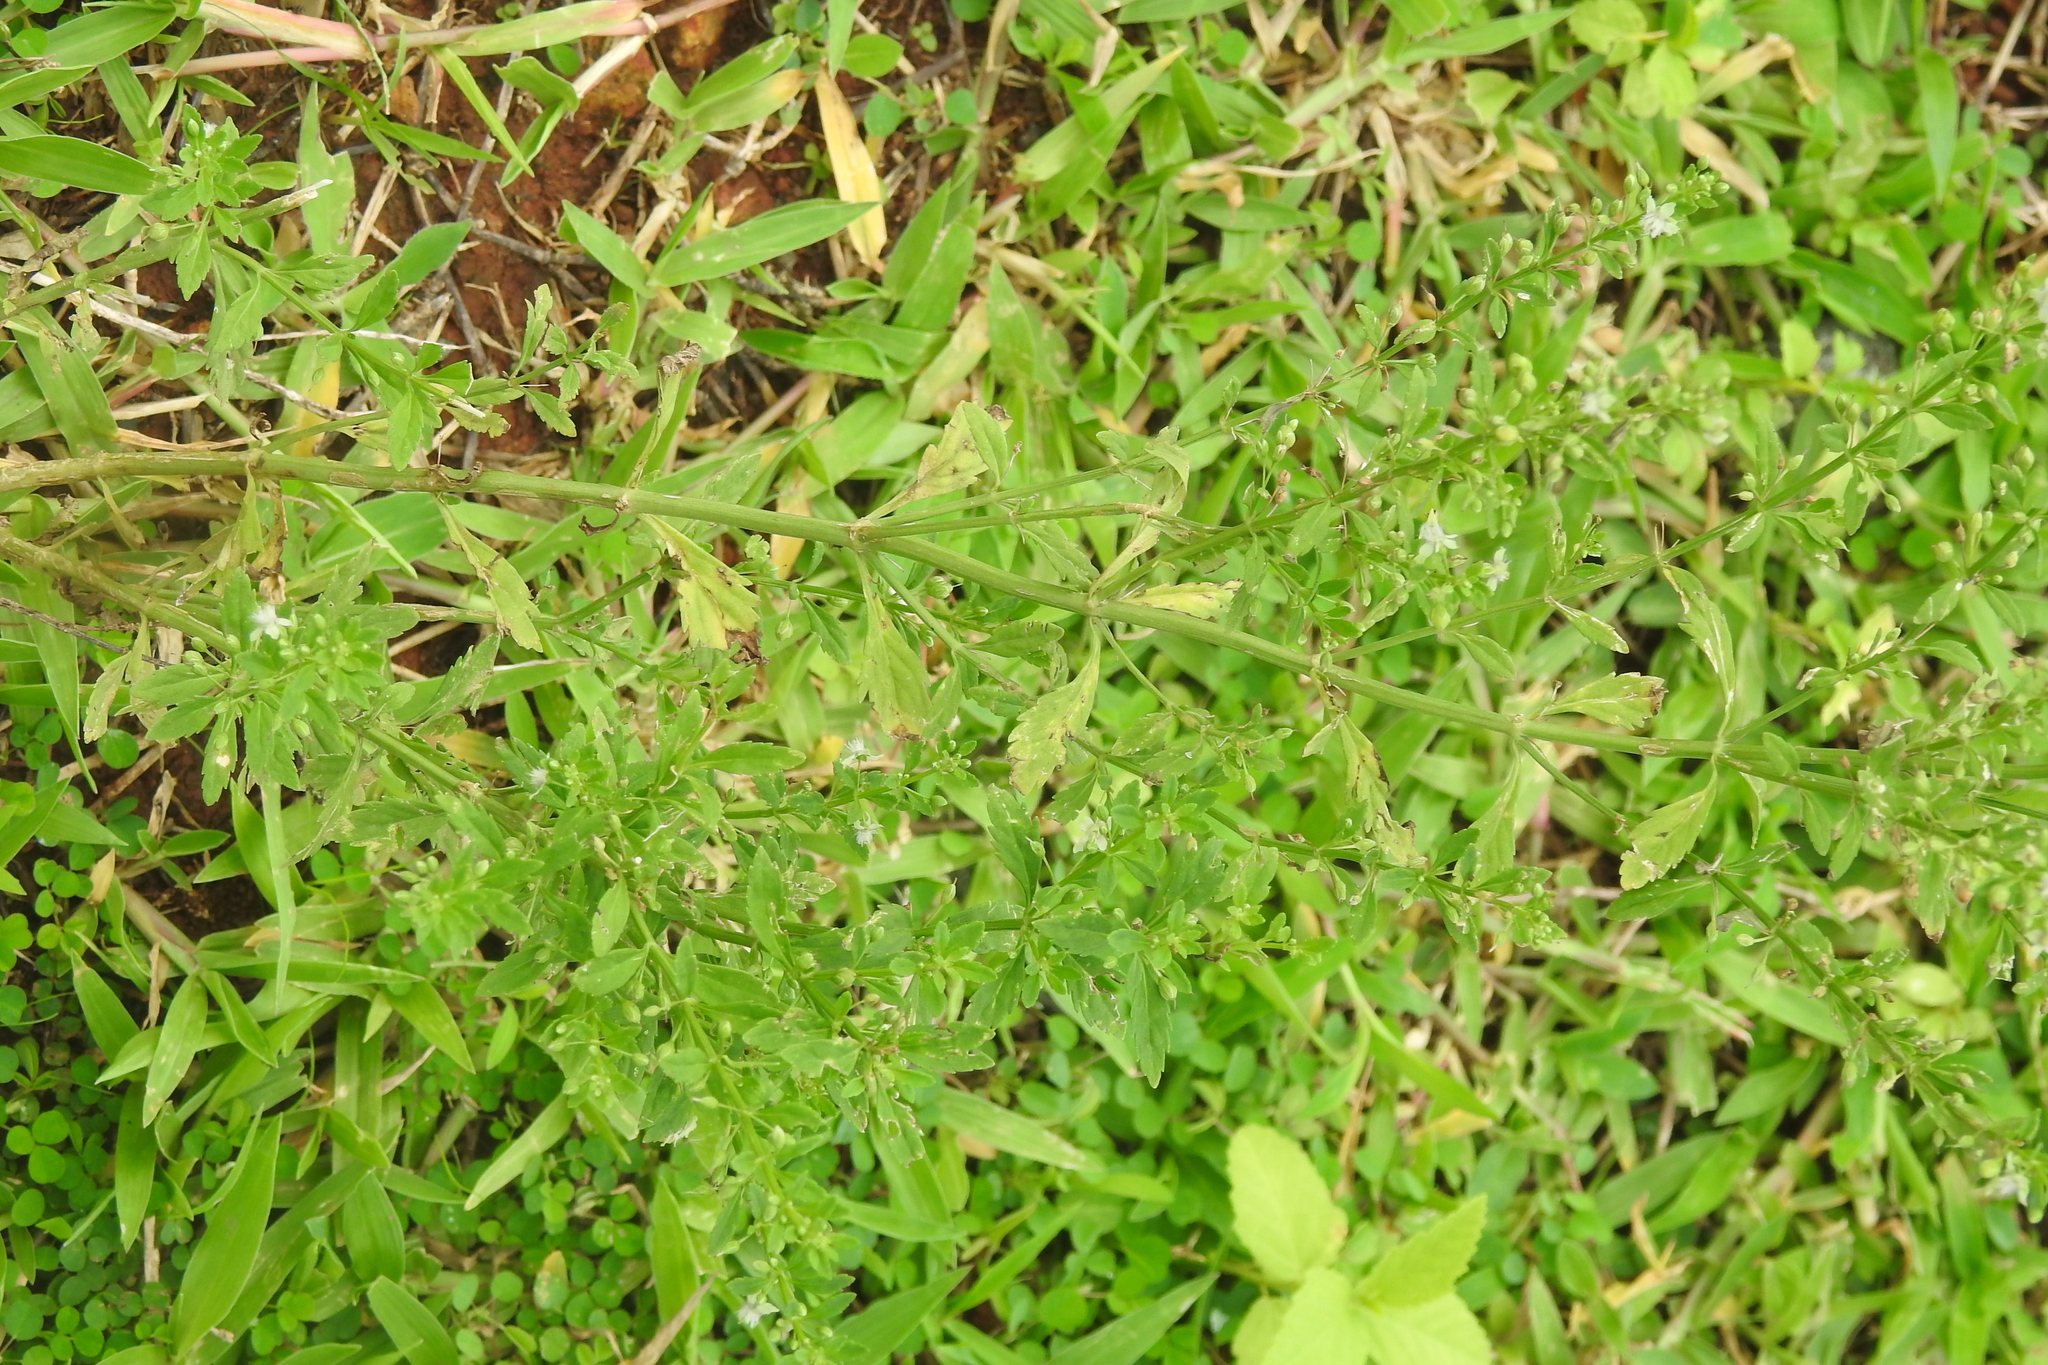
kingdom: Plantae
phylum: Tracheophyta
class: Magnoliopsida
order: Lamiales
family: Plantaginaceae
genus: Scoparia
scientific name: Scoparia dulcis
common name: Scoparia-weed
